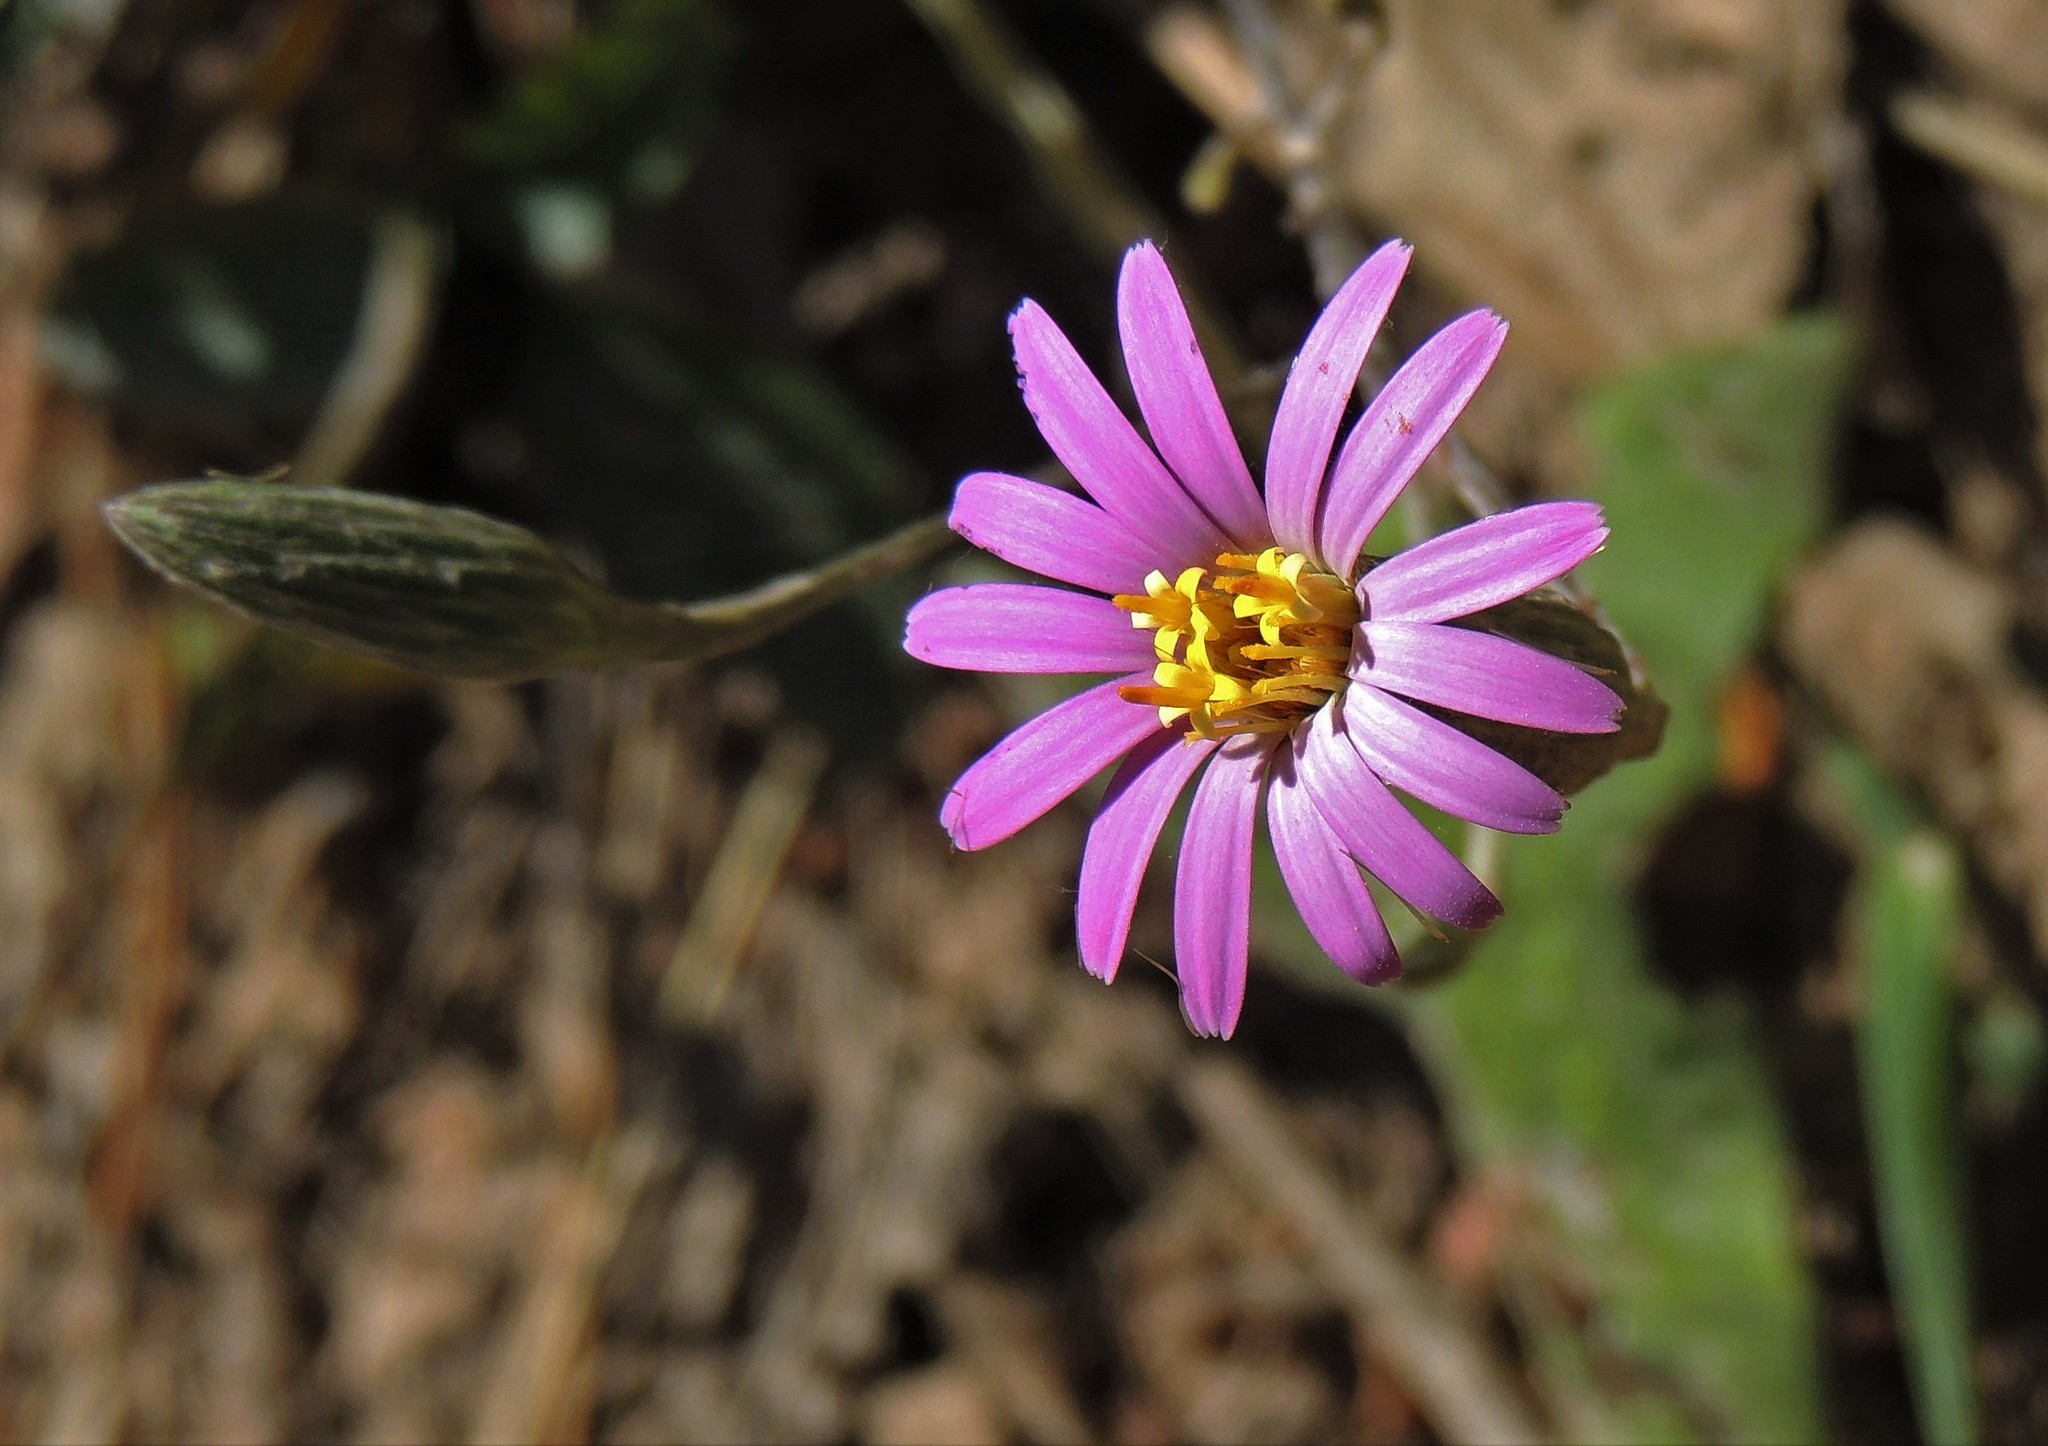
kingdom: Plantae
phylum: Tracheophyta
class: Magnoliopsida
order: Asterales
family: Asteraceae
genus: Onoseris
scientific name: Onoseris alata
